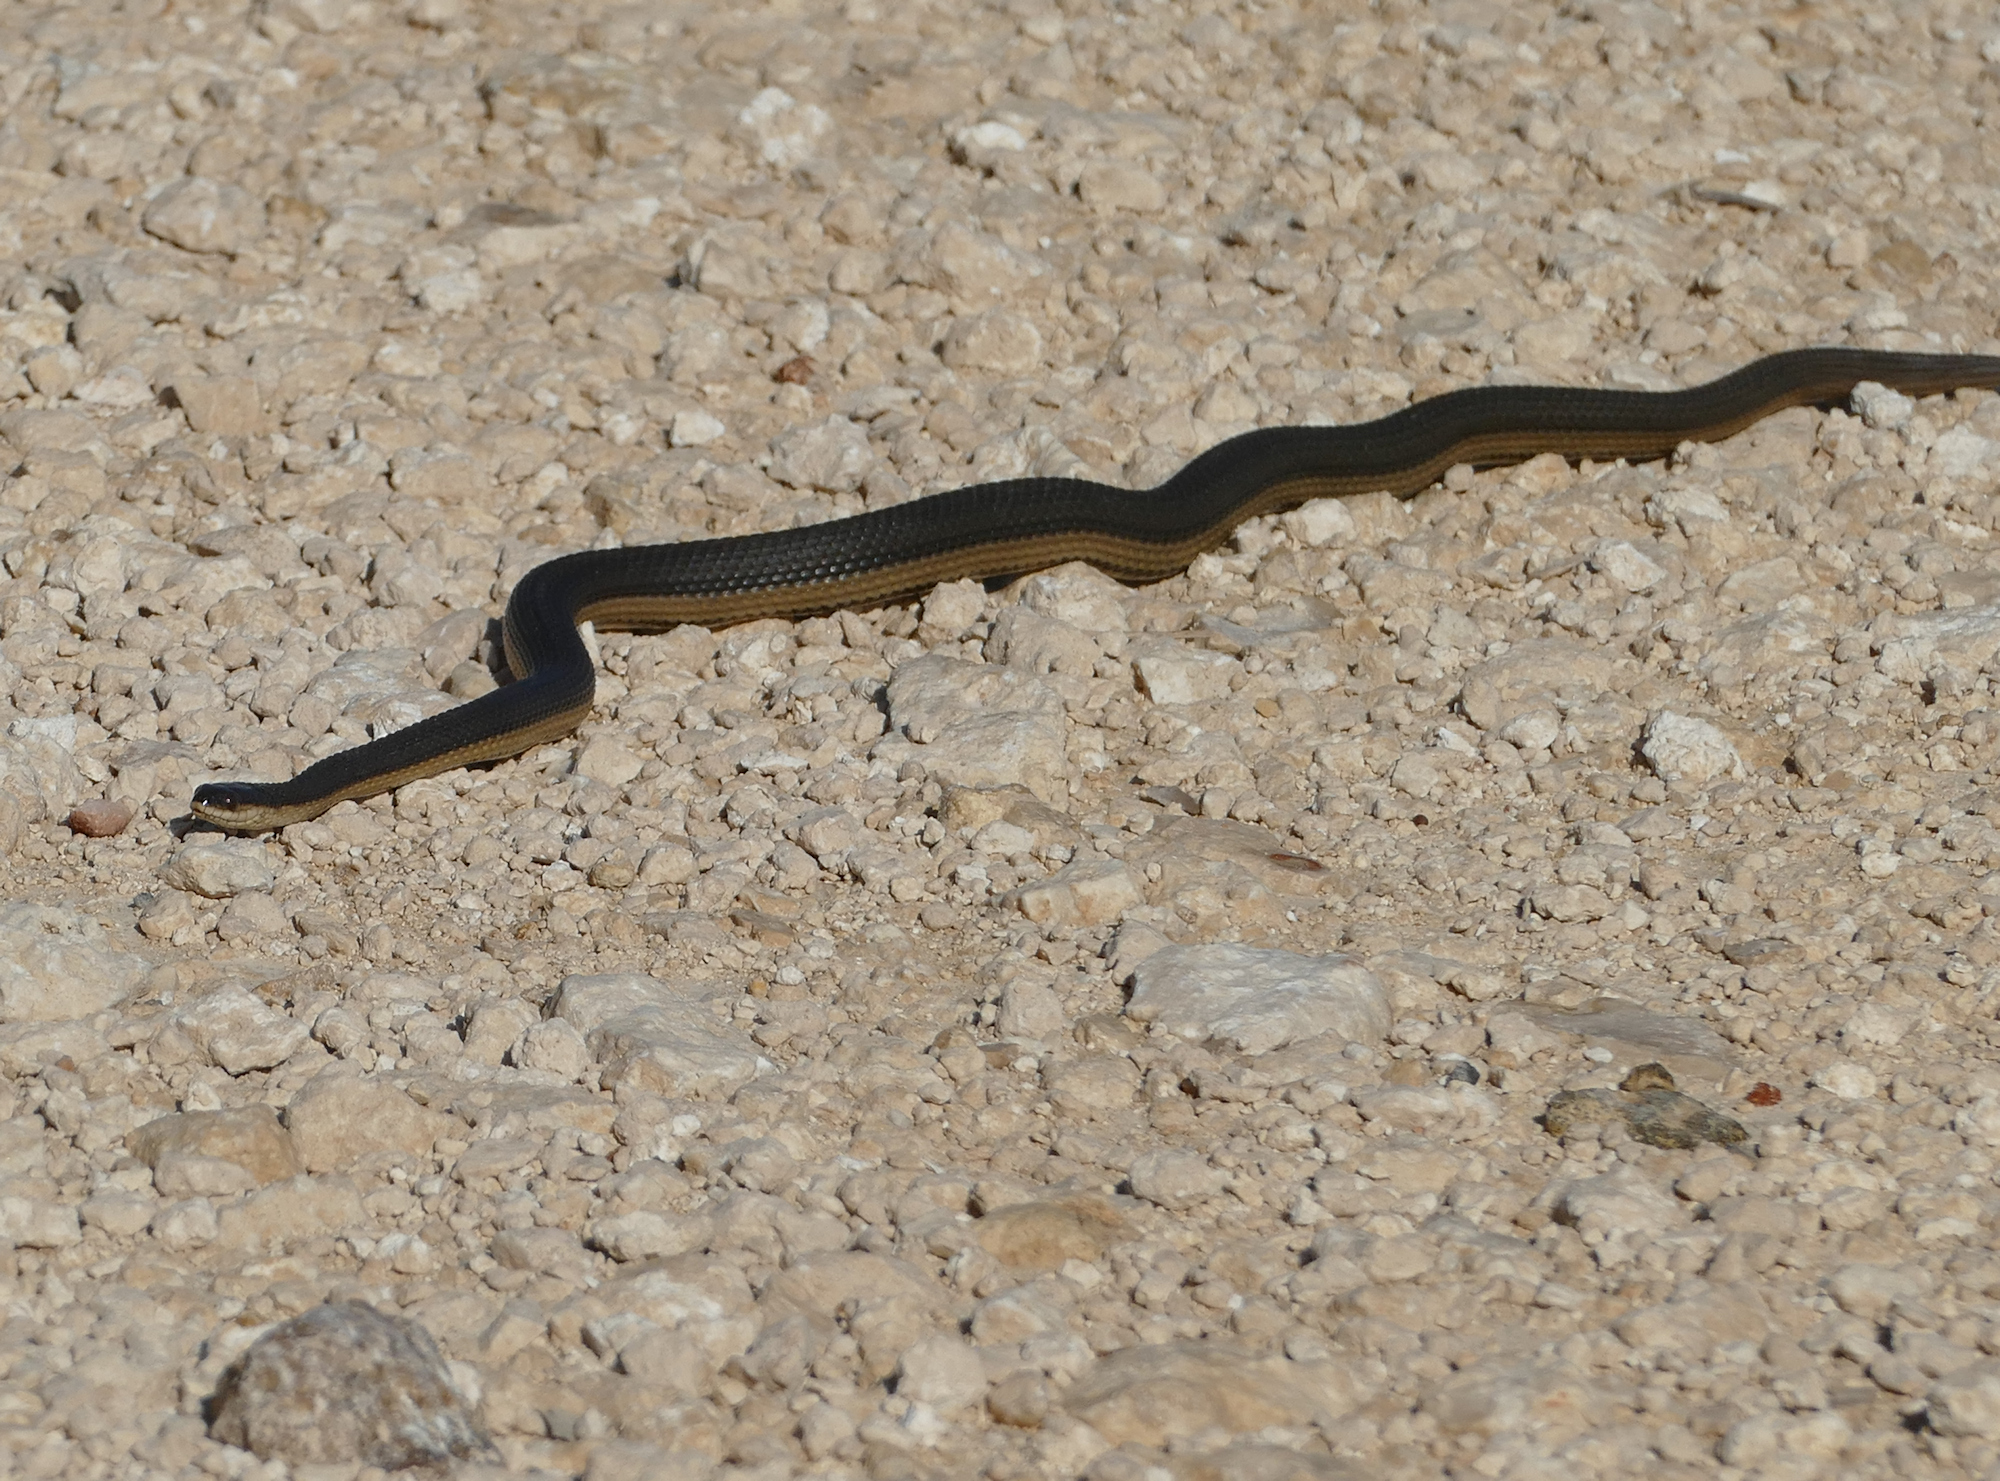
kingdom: Animalia
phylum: Chordata
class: Squamata
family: Colubridae
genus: Regina
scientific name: Regina grahamii
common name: Graham's crayfish snake
